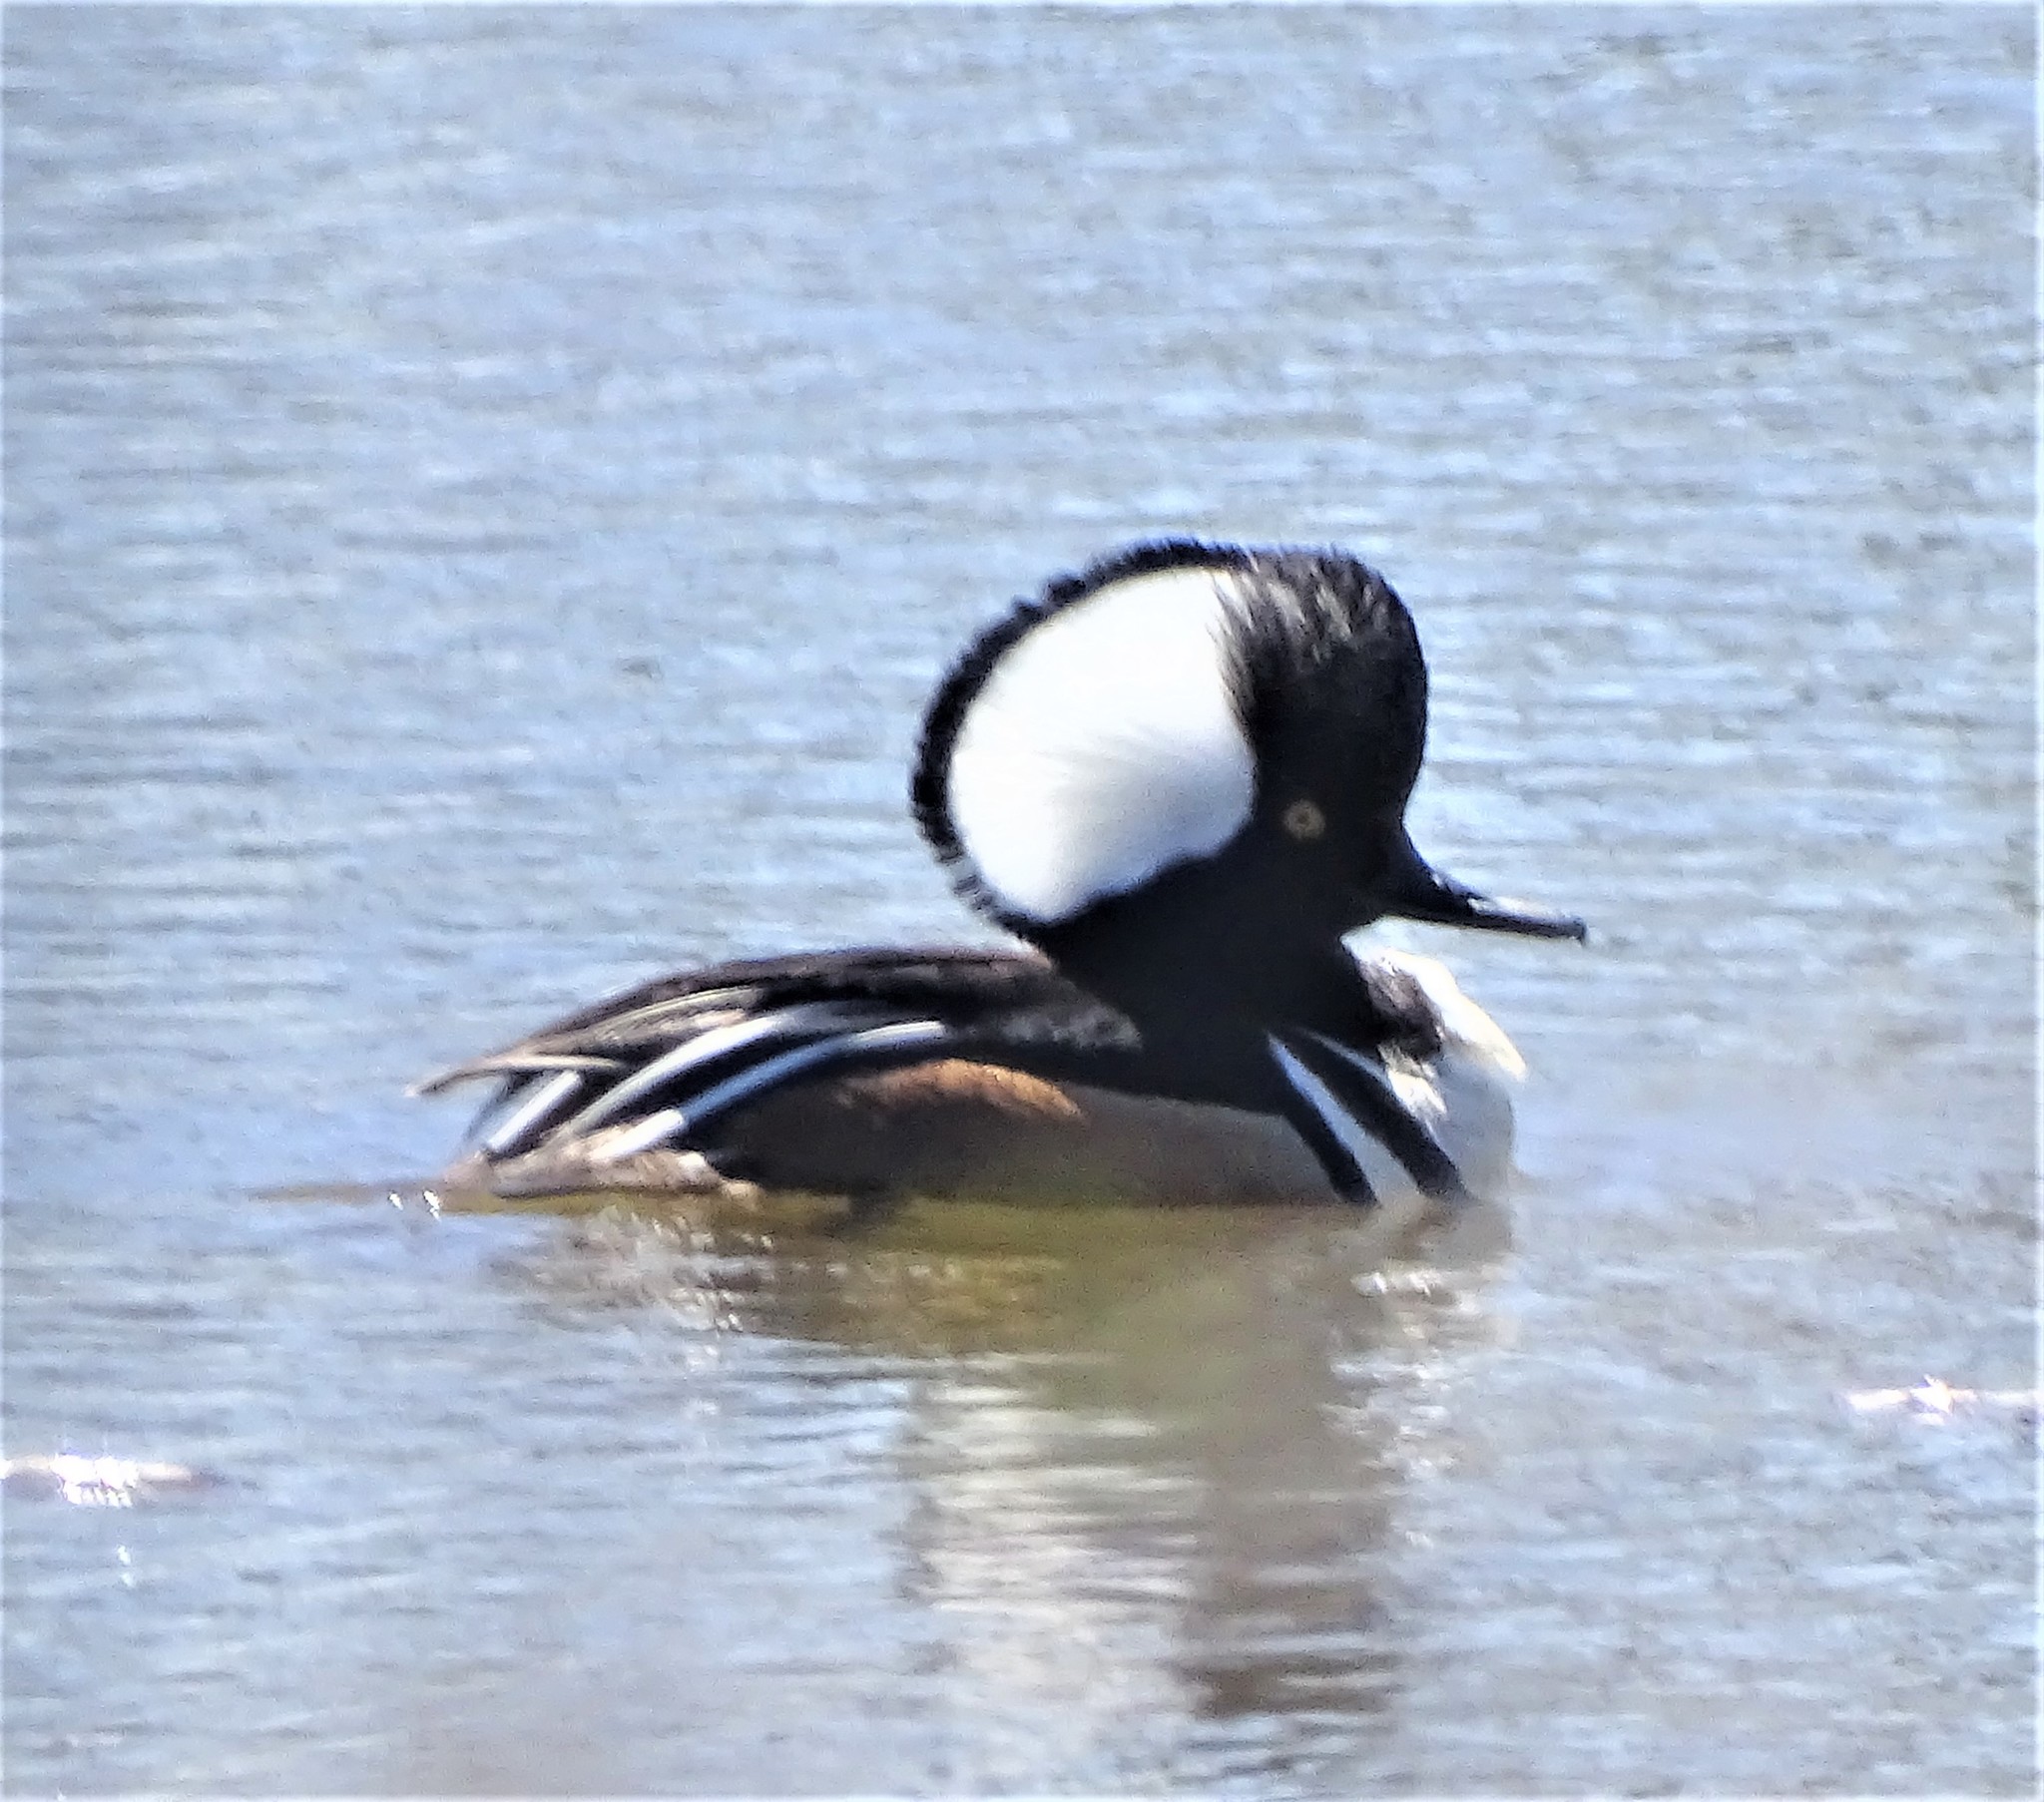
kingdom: Animalia
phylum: Chordata
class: Aves
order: Anseriformes
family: Anatidae
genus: Lophodytes
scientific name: Lophodytes cucullatus
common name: Hooded merganser
